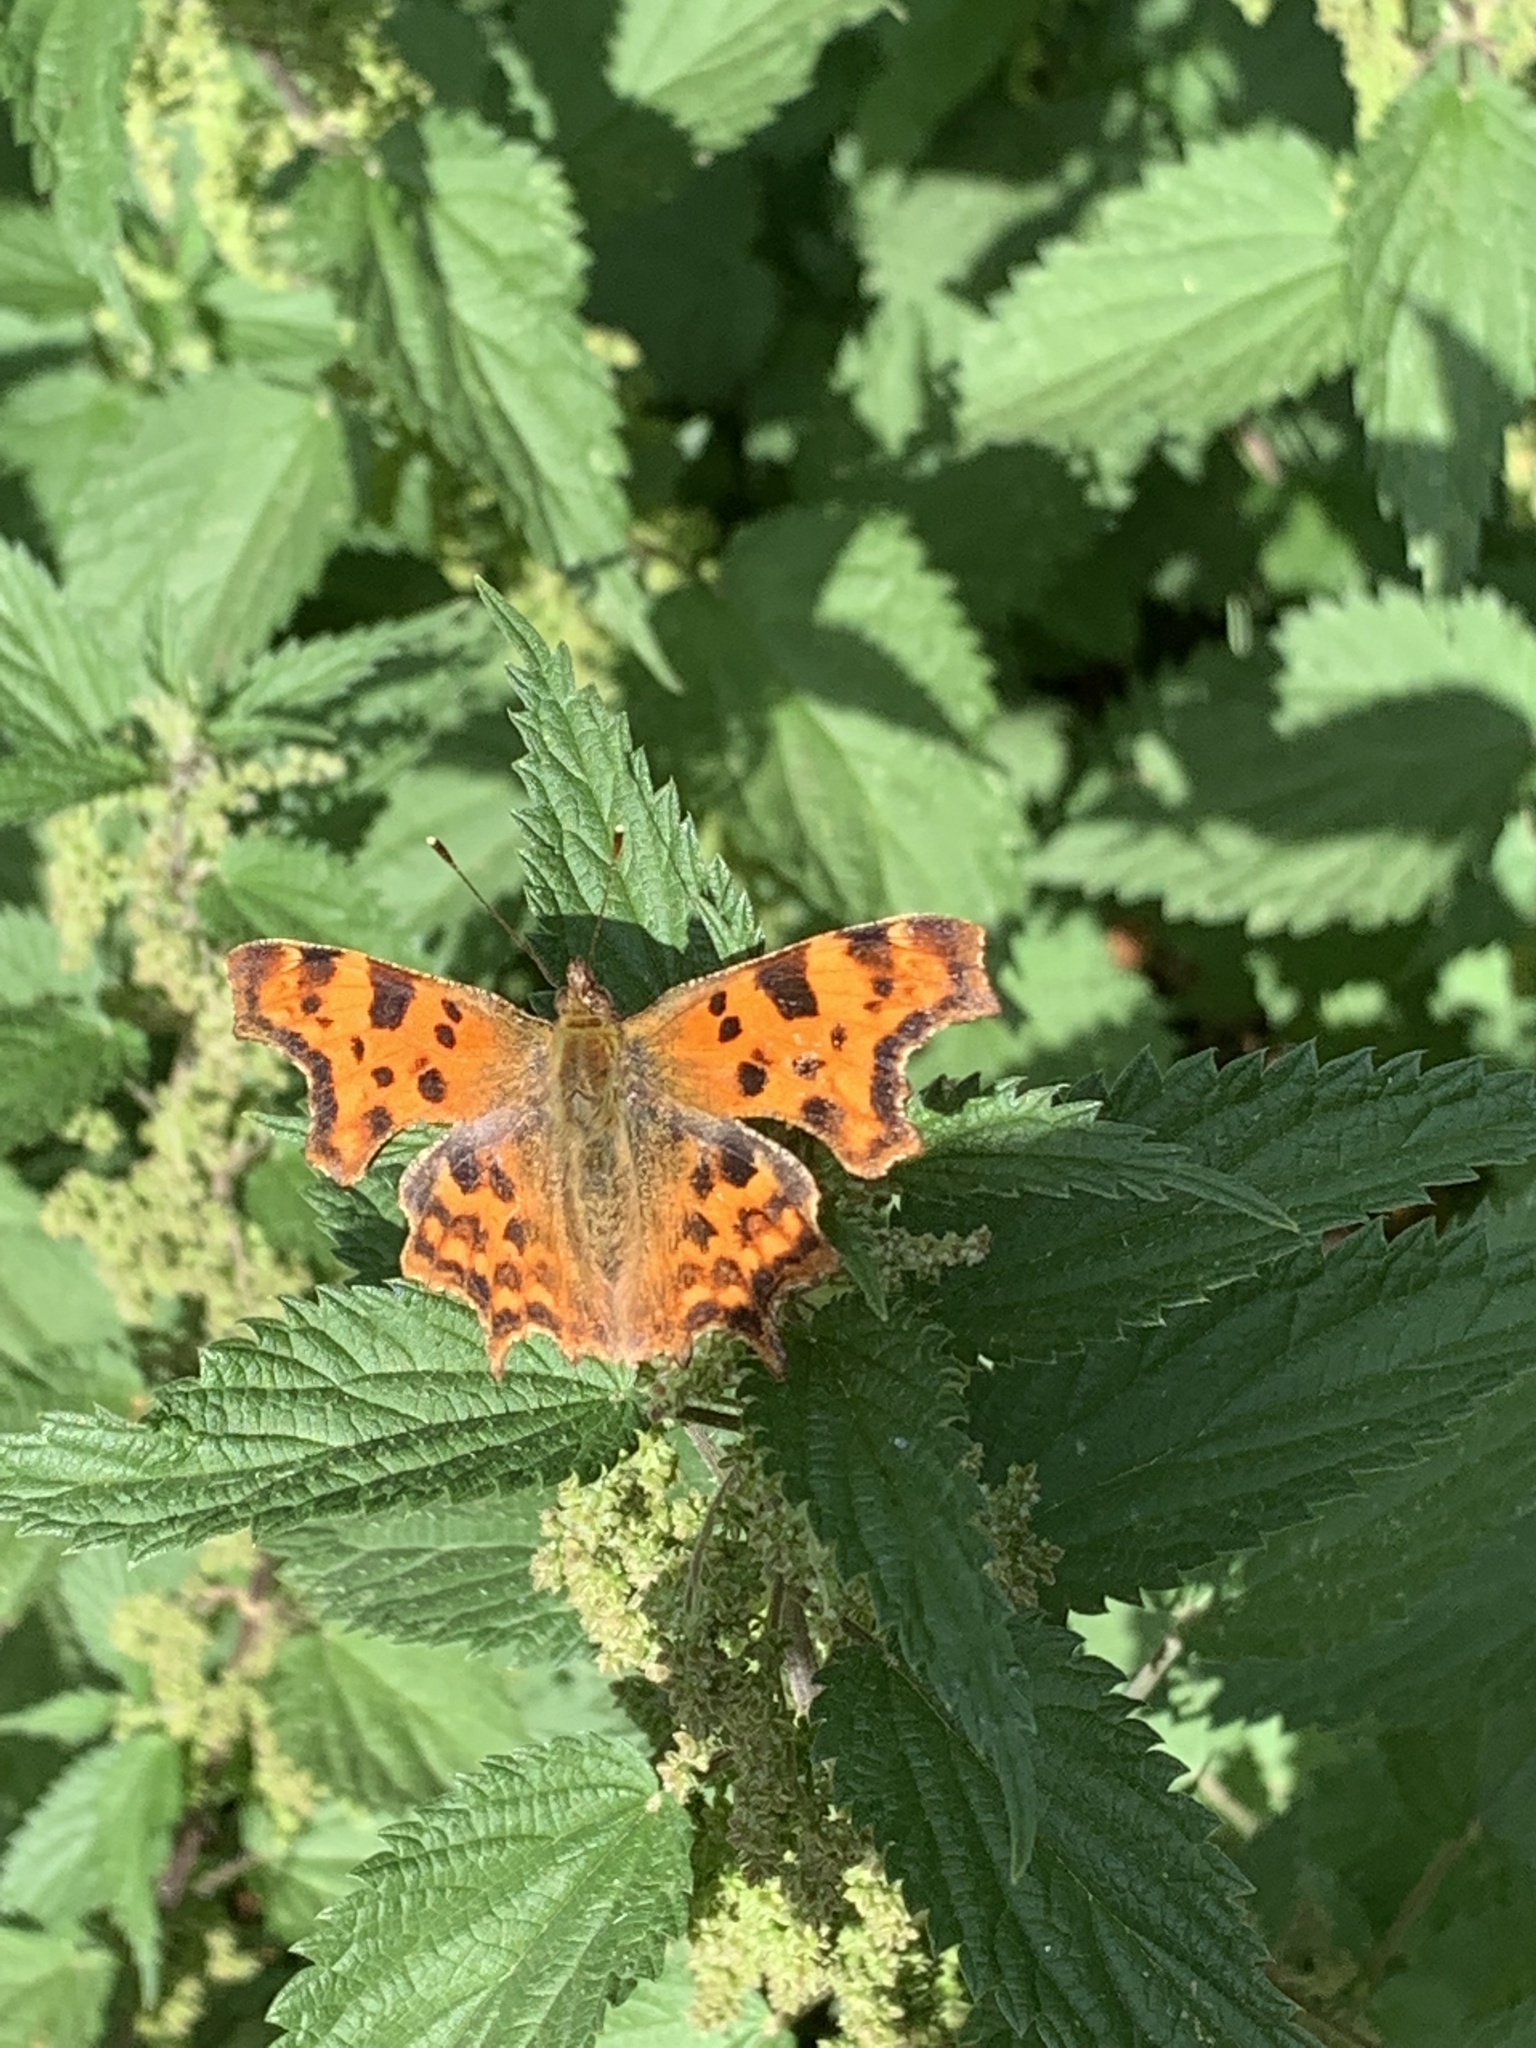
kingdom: Animalia
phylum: Arthropoda
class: Insecta
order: Lepidoptera
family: Nymphalidae
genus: Polygonia
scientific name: Polygonia c-album
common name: Comma
